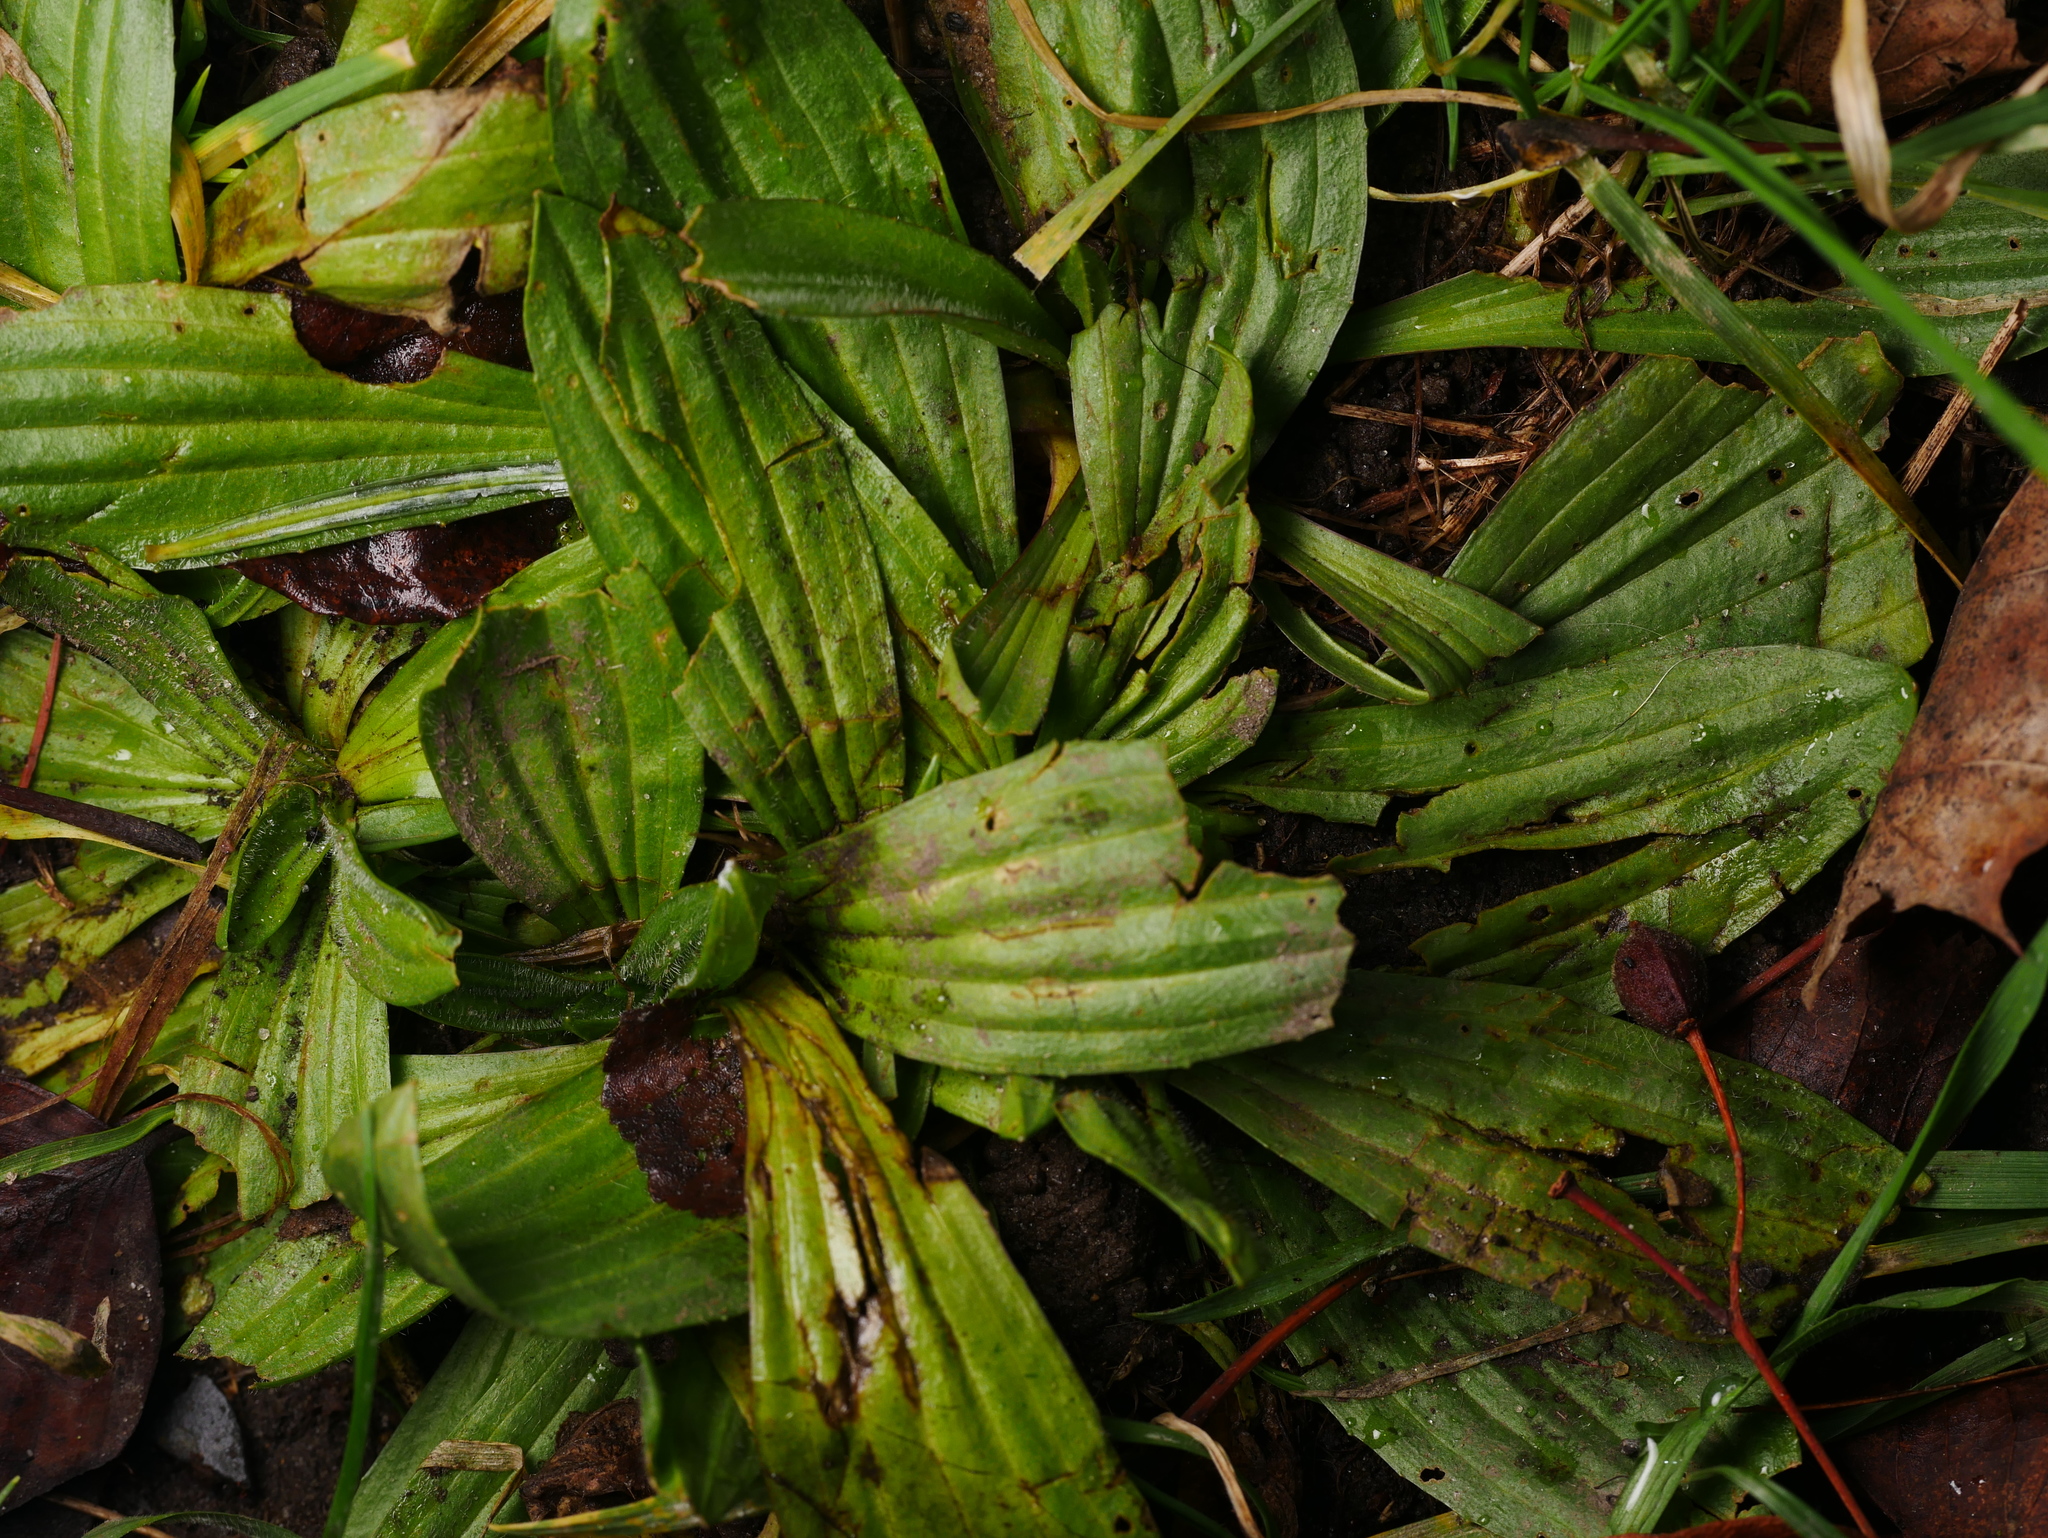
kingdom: Plantae
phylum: Tracheophyta
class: Magnoliopsida
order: Lamiales
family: Plantaginaceae
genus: Plantago
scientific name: Plantago lanceolata
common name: Ribwort plantain
